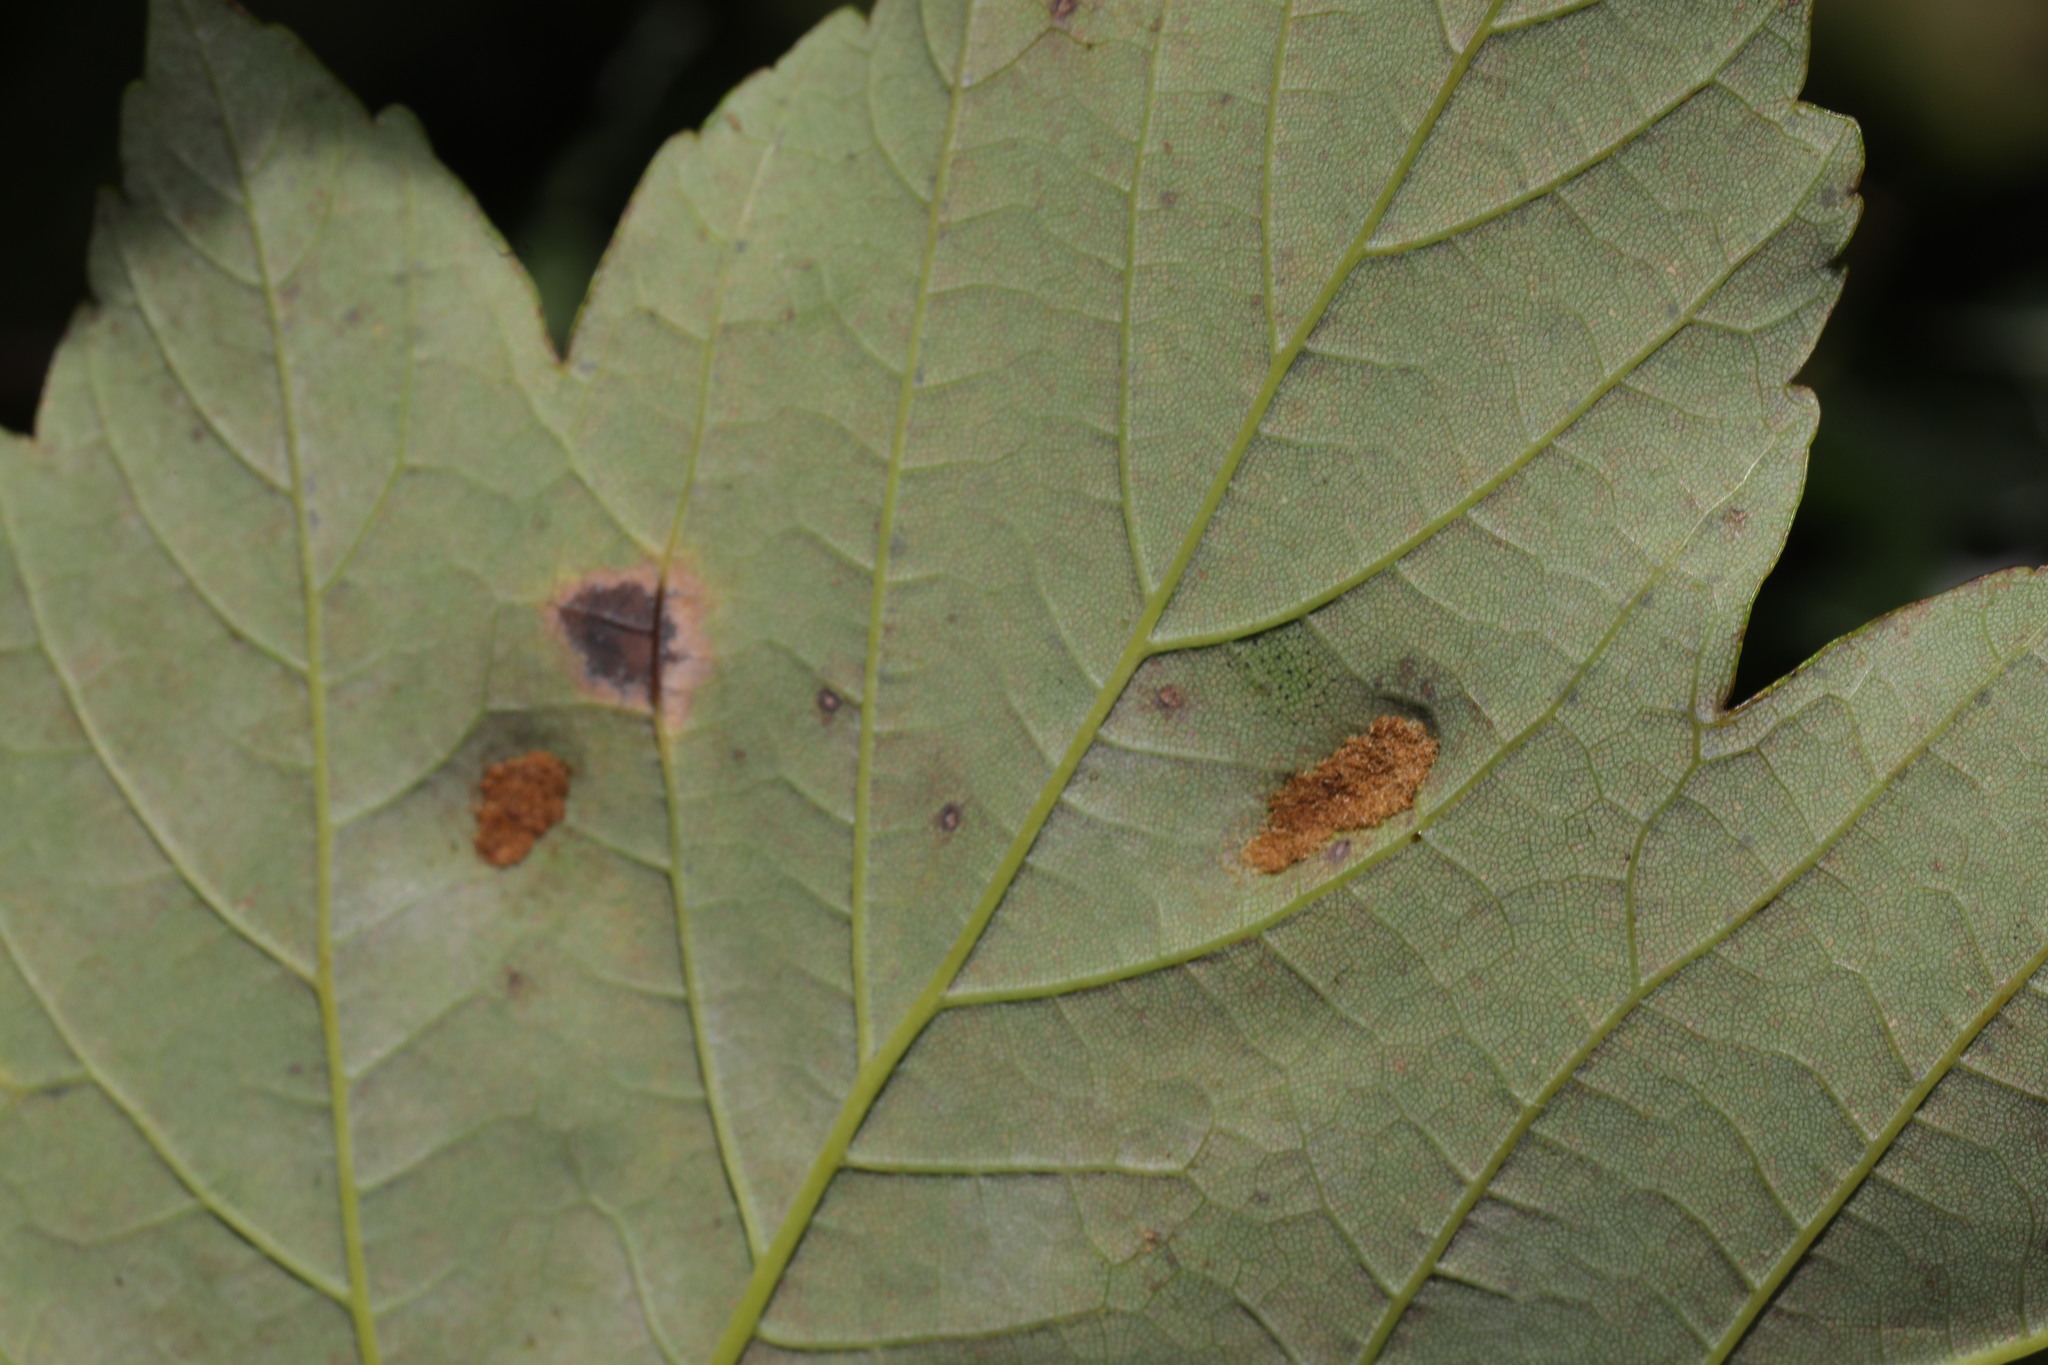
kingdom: Animalia
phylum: Arthropoda
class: Arachnida
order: Trombidiformes
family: Eriophyidae
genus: Aceria
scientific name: Aceria pseudoplatani
